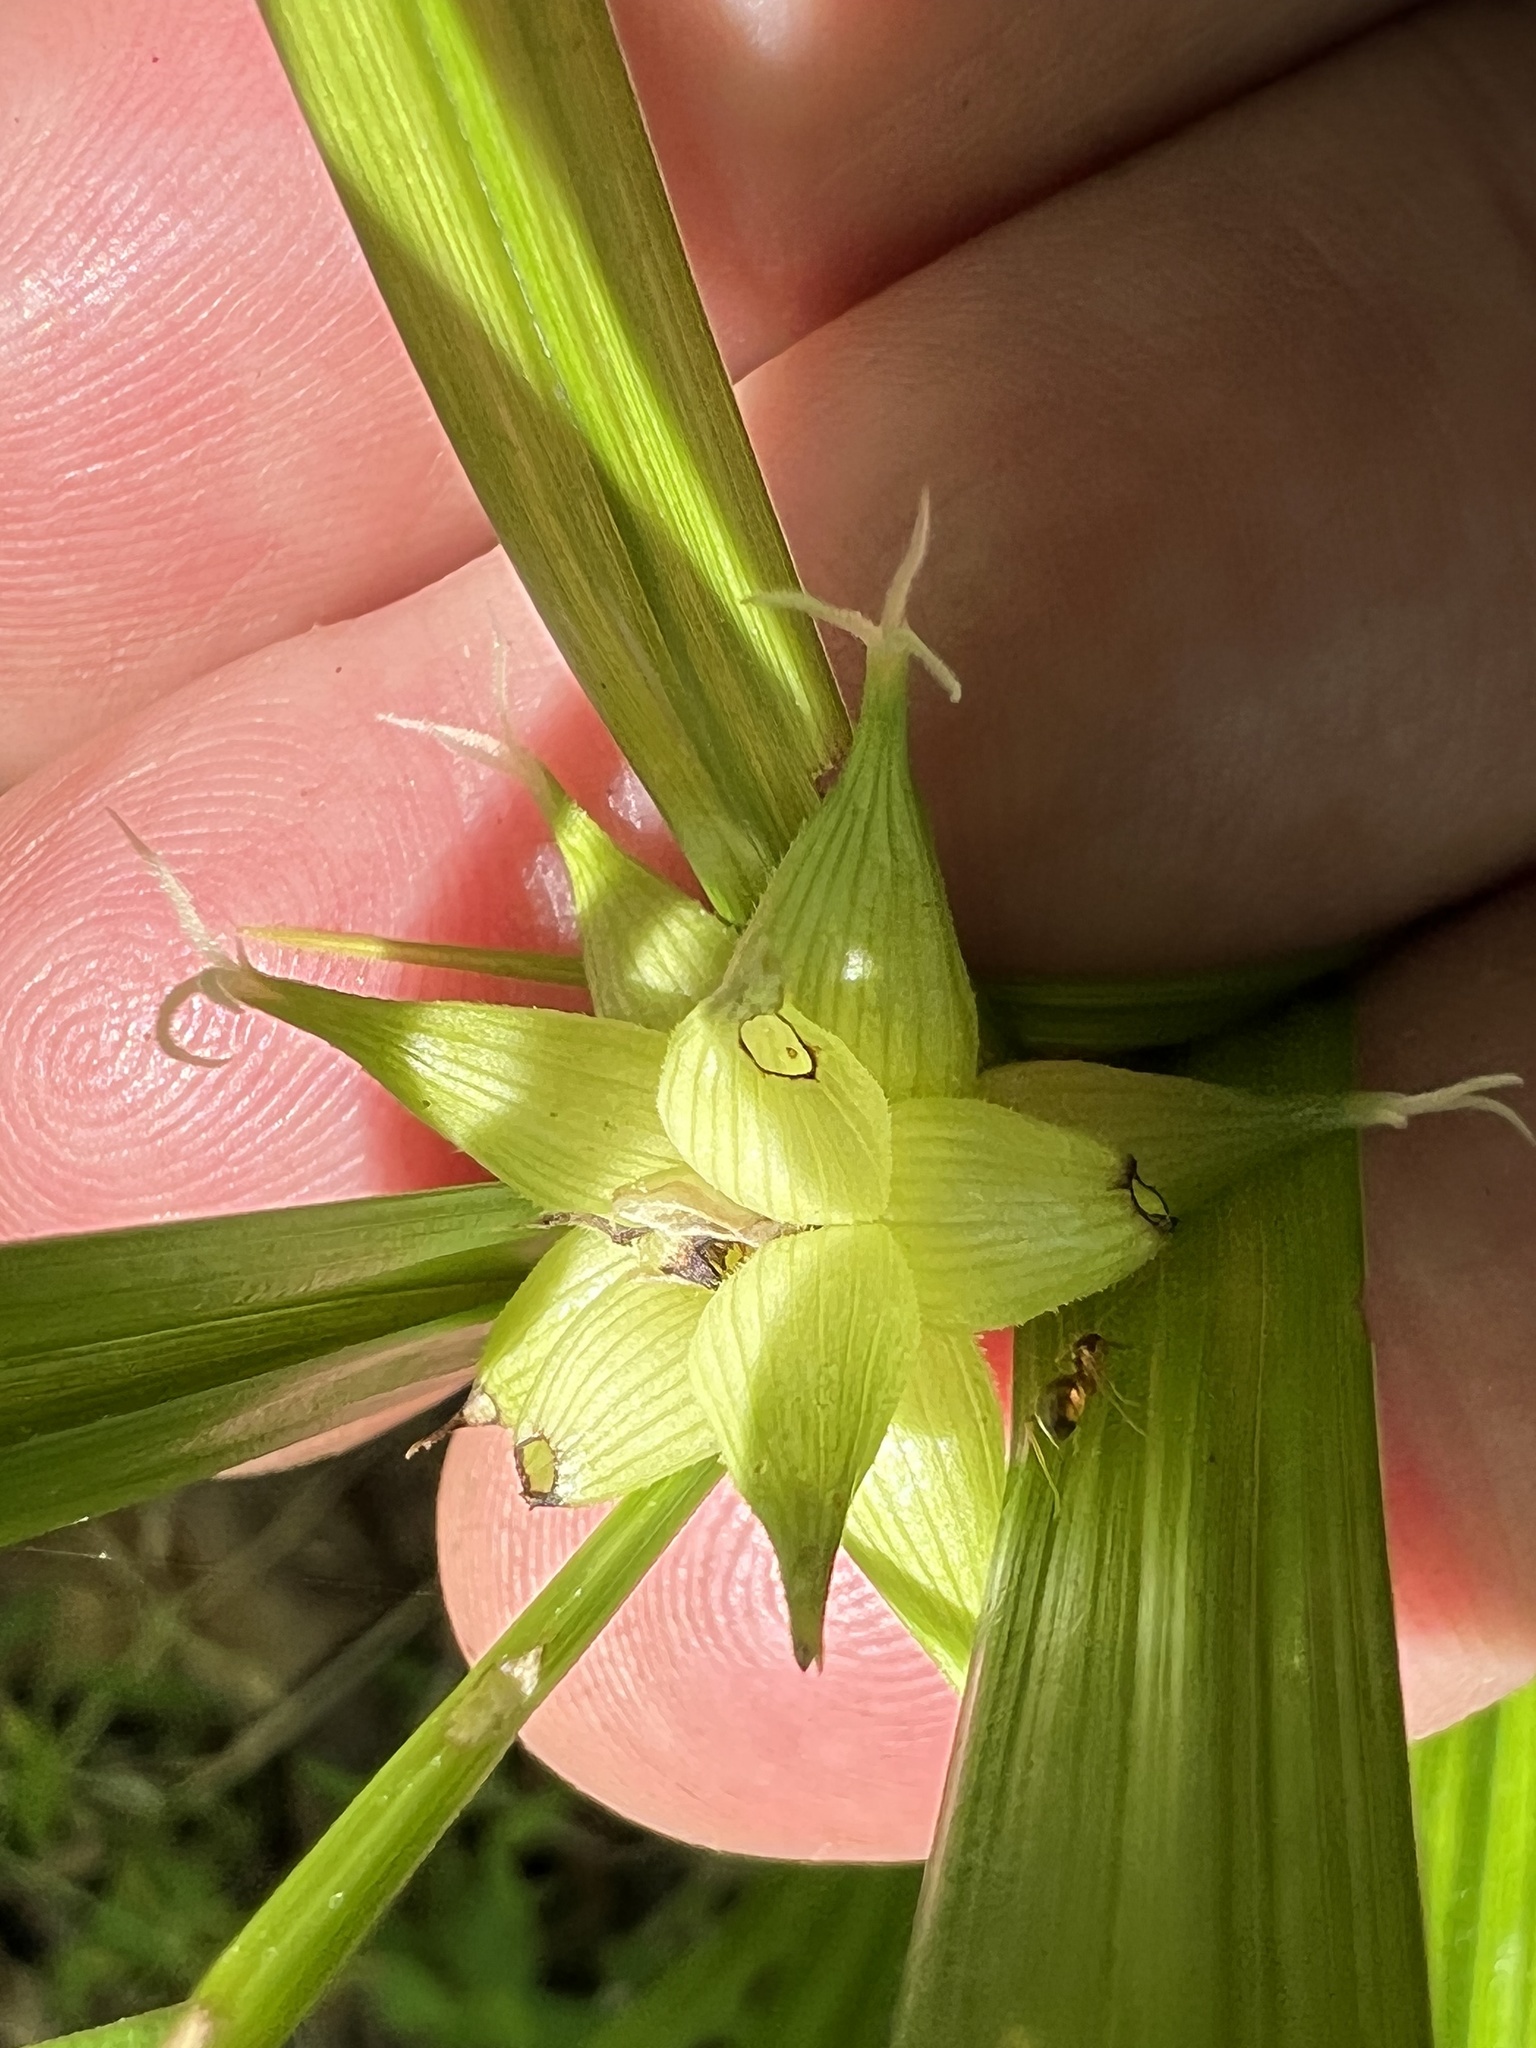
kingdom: Plantae
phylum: Tracheophyta
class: Liliopsida
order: Poales
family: Cyperaceae
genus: Carex
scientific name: Carex grayi
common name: Asa gray's sedge
